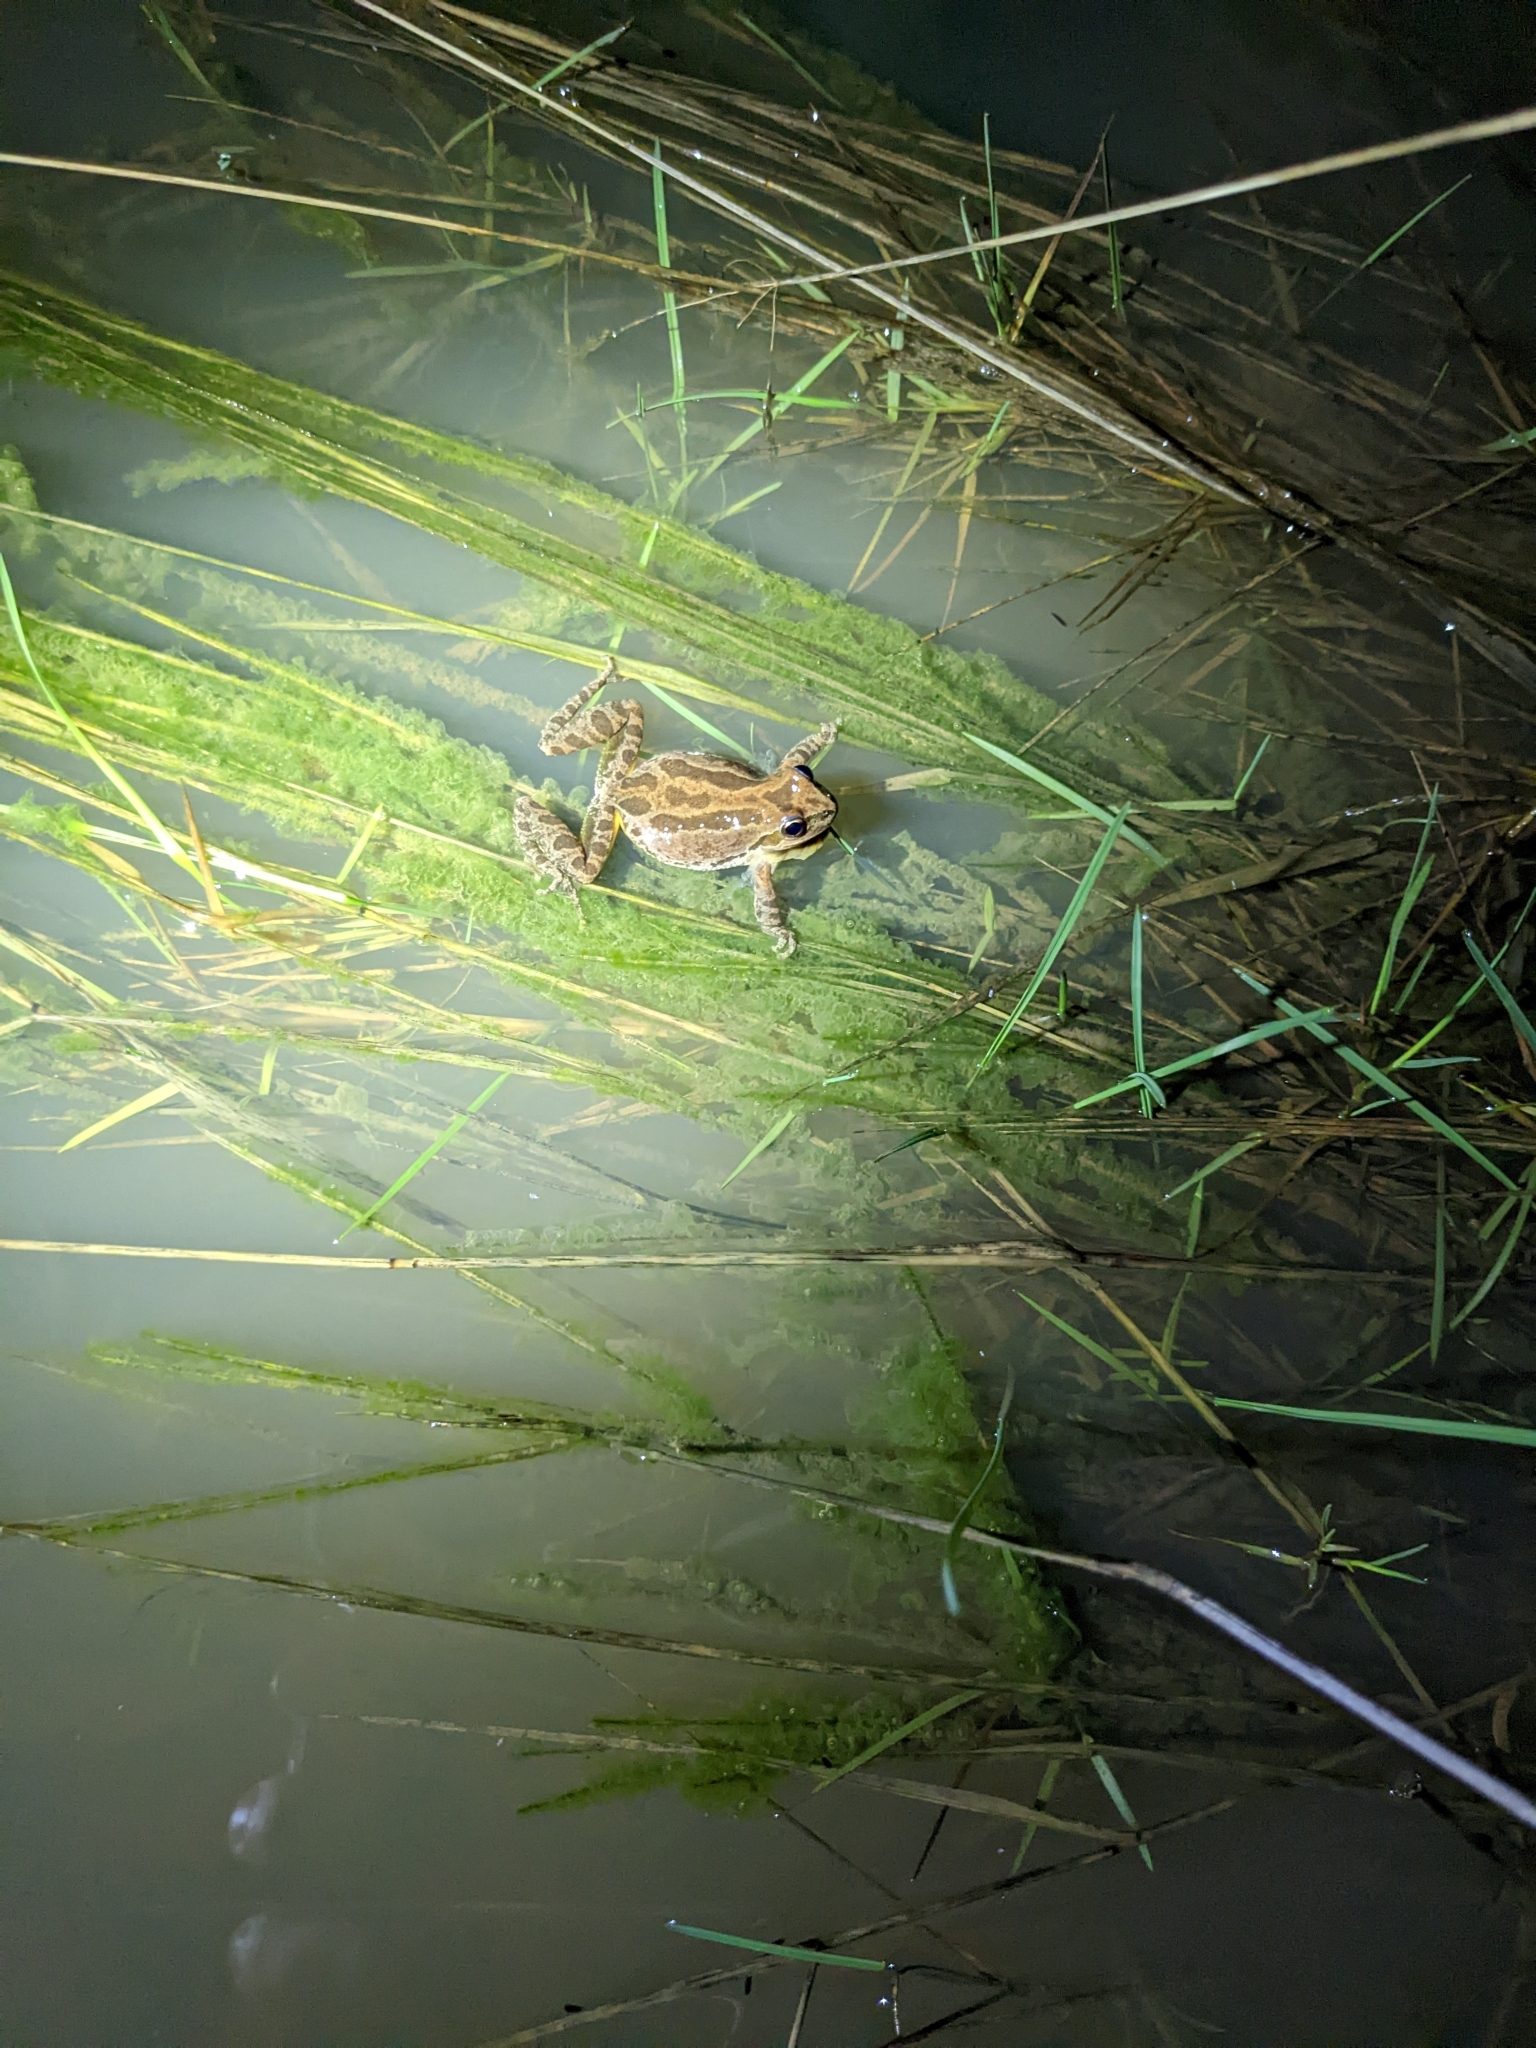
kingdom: Animalia
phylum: Chordata
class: Amphibia
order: Anura
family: Hylidae
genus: Pseudacris
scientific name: Pseudacris regilla
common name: Pacific chorus frog
